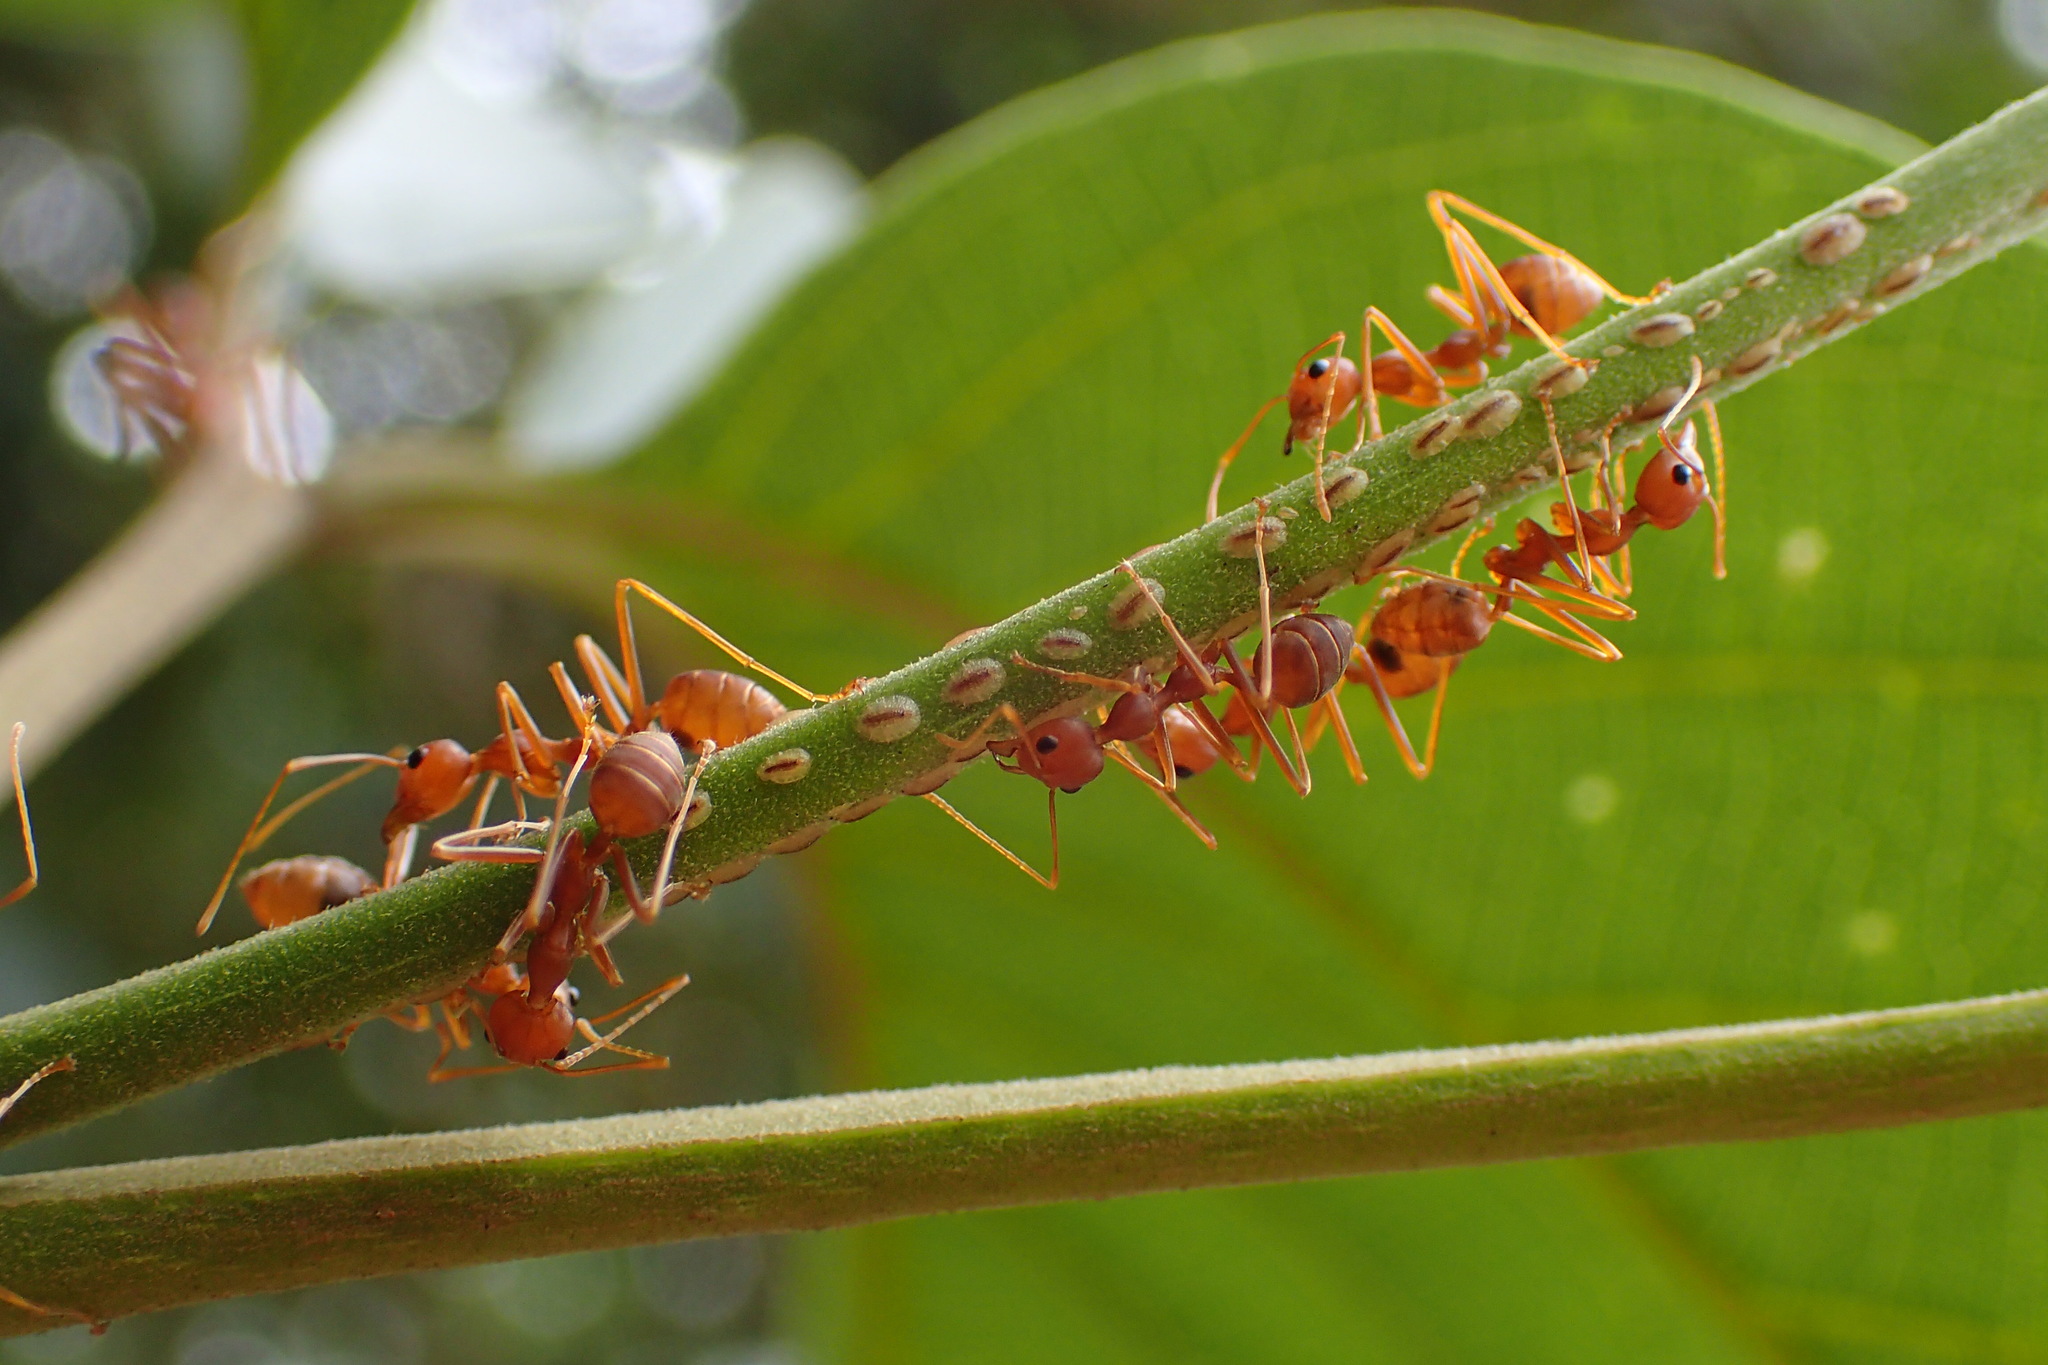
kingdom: Animalia
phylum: Arthropoda
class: Insecta
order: Hymenoptera
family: Formicidae
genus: Oecophylla
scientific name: Oecophylla smaragdina
